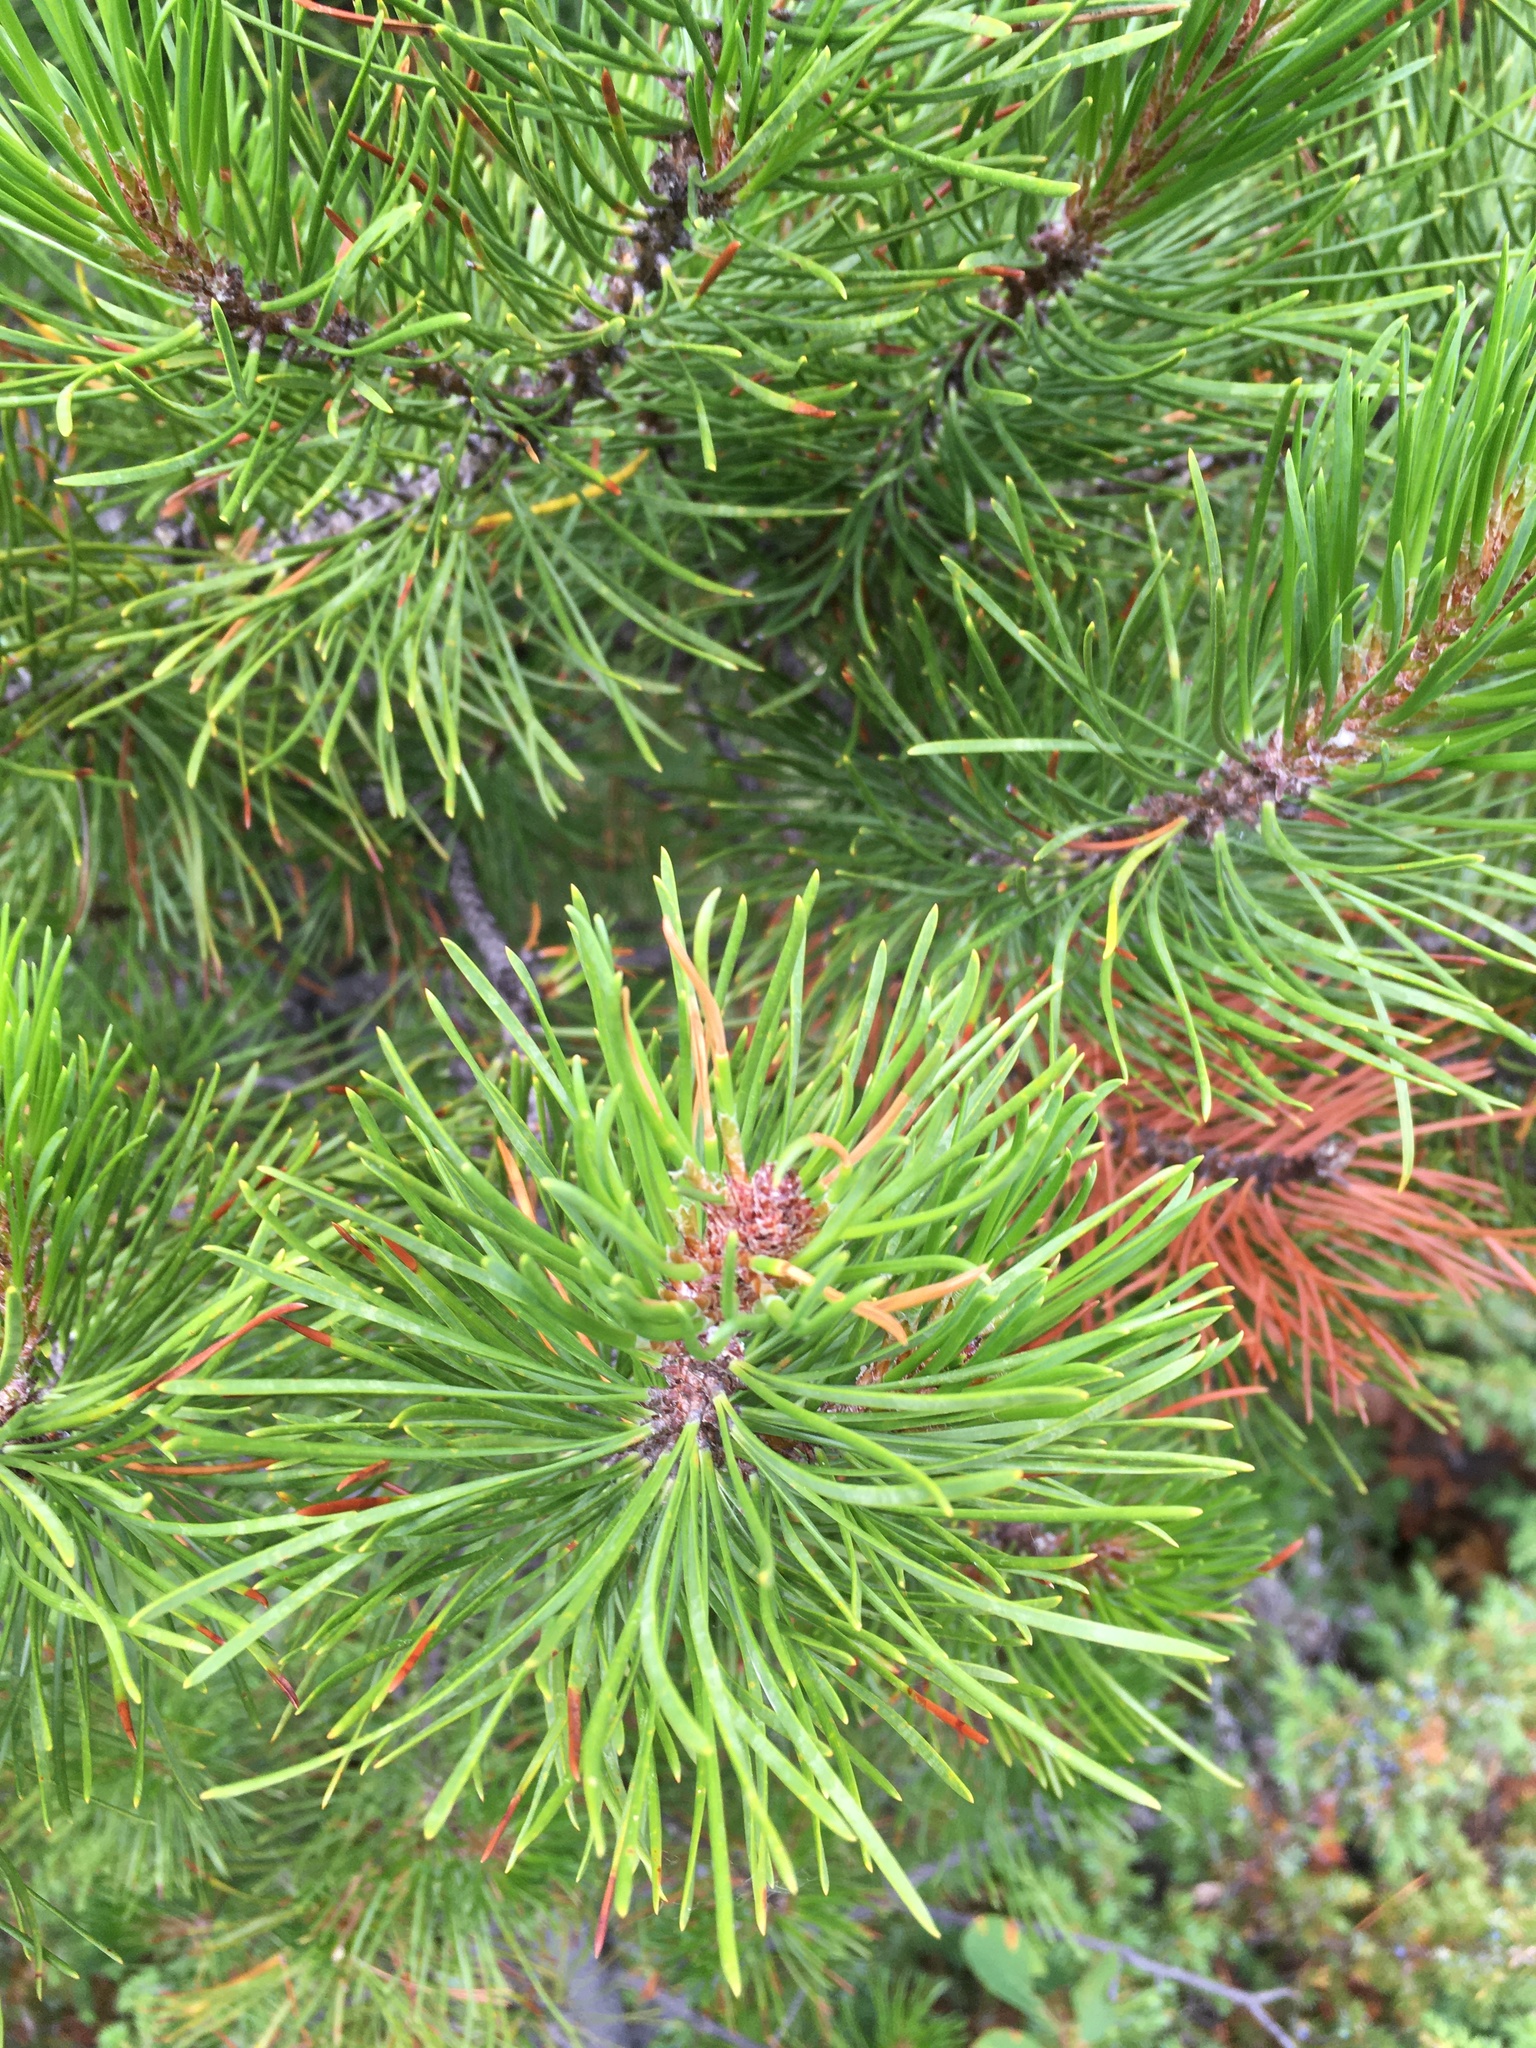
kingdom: Plantae
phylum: Tracheophyta
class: Pinopsida
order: Pinales
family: Pinaceae
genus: Pinus
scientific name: Pinus contorta
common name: Lodgepole pine
